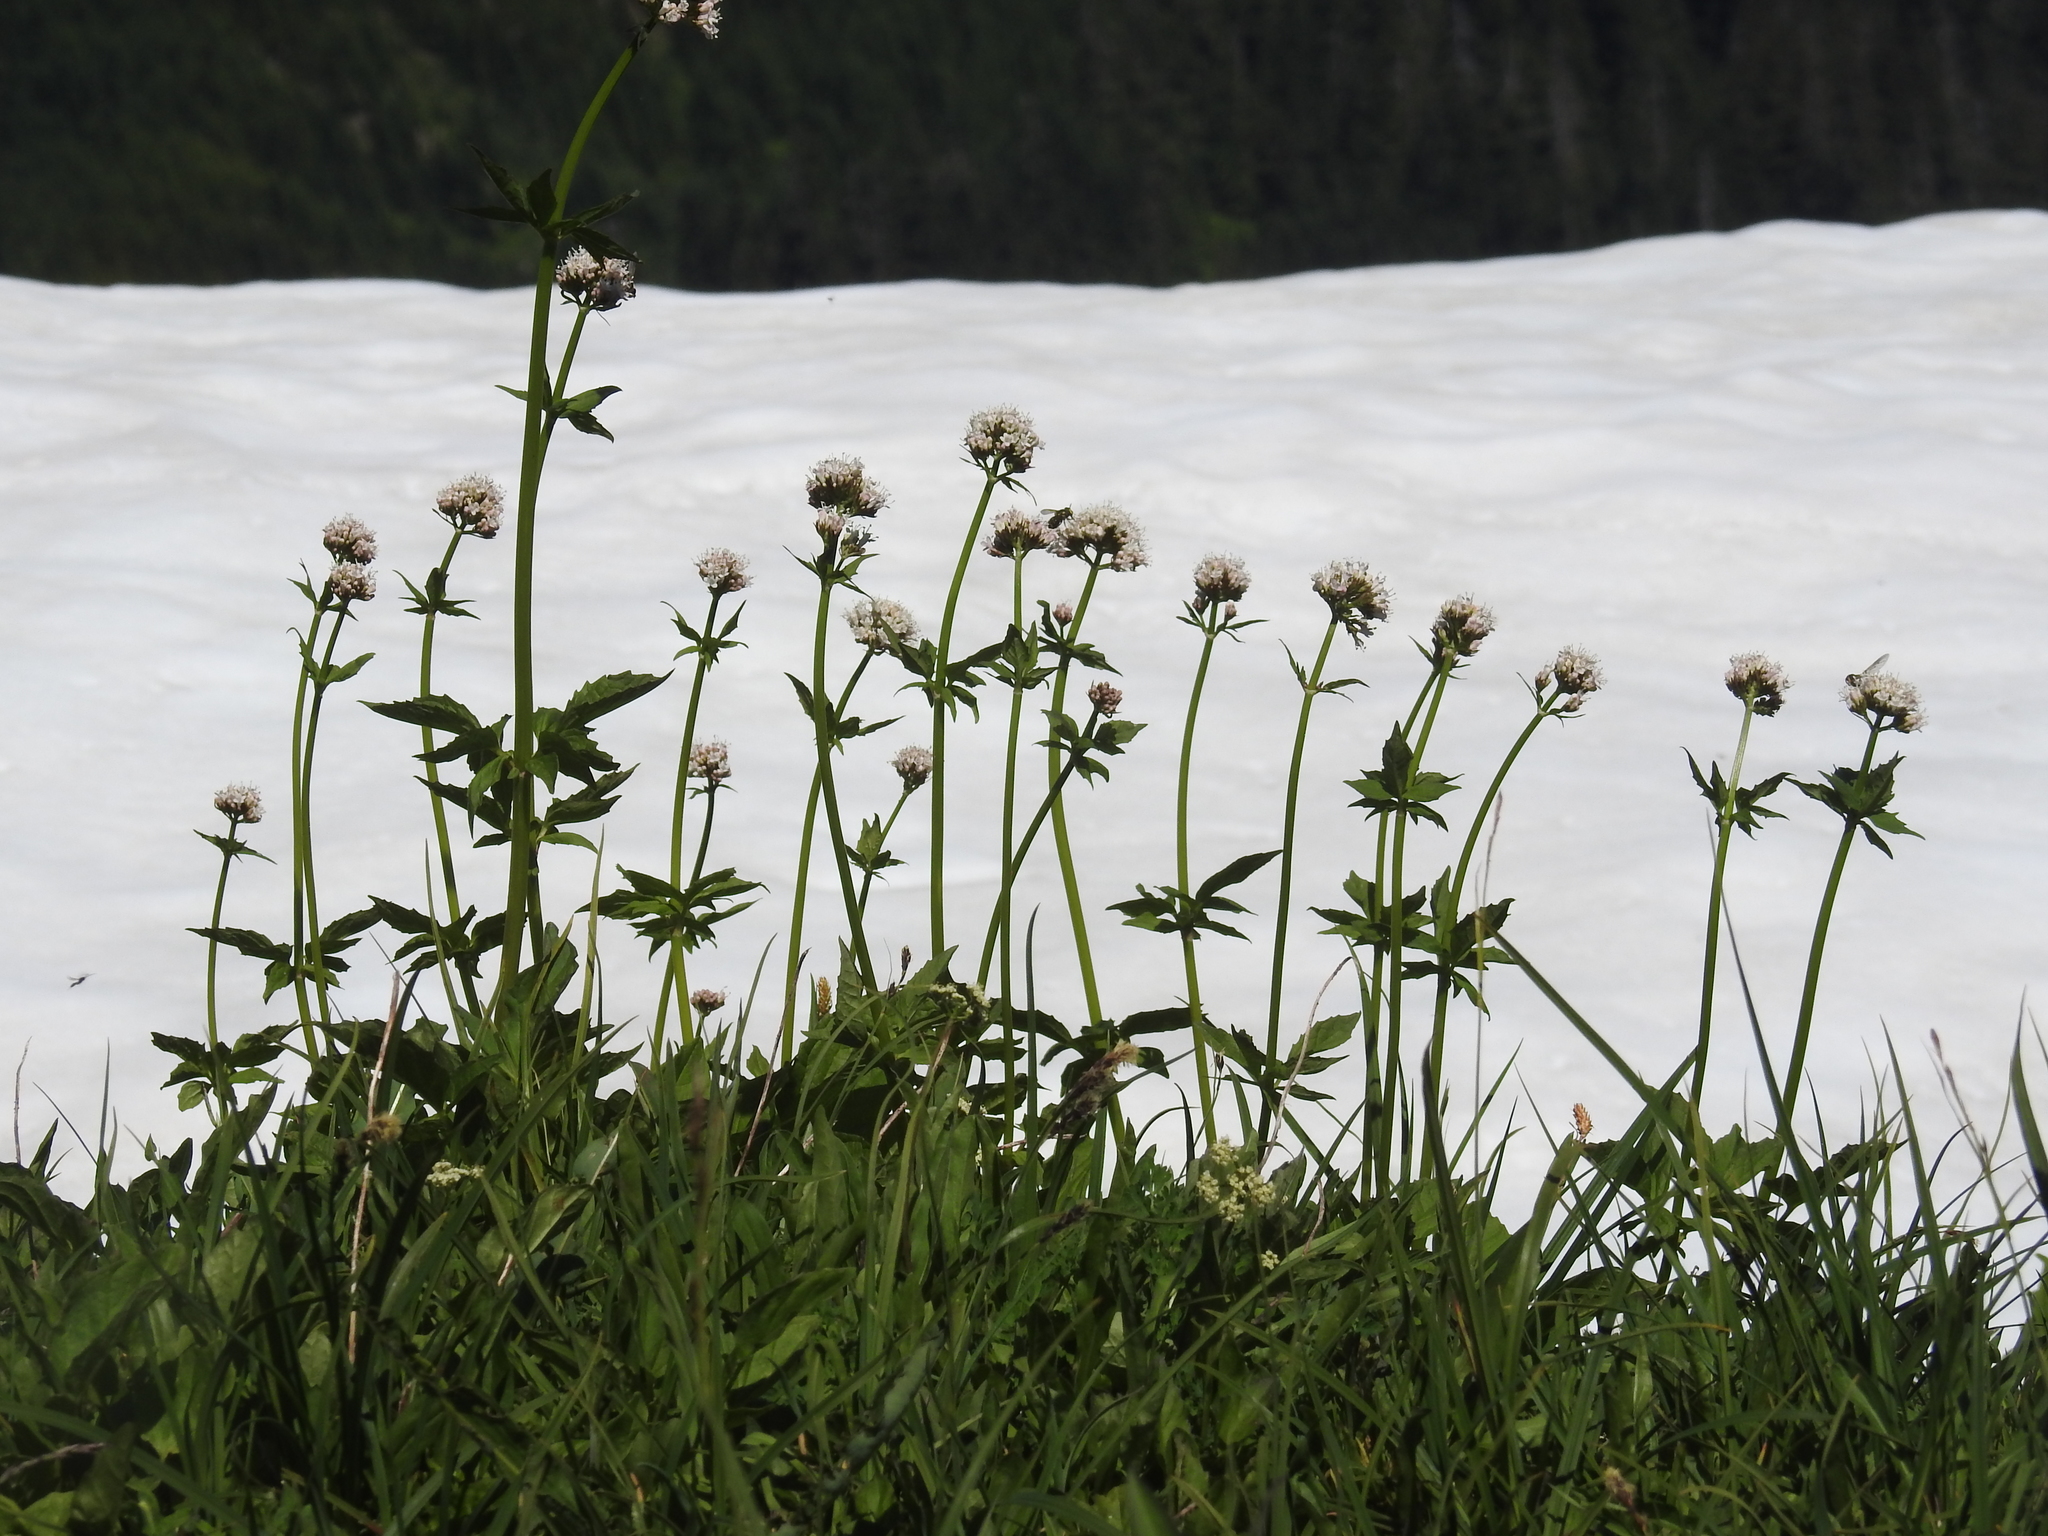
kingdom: Plantae
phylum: Tracheophyta
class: Magnoliopsida
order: Dipsacales
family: Caprifoliaceae
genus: Valeriana
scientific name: Valeriana sitchensis
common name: Pacific valerian
